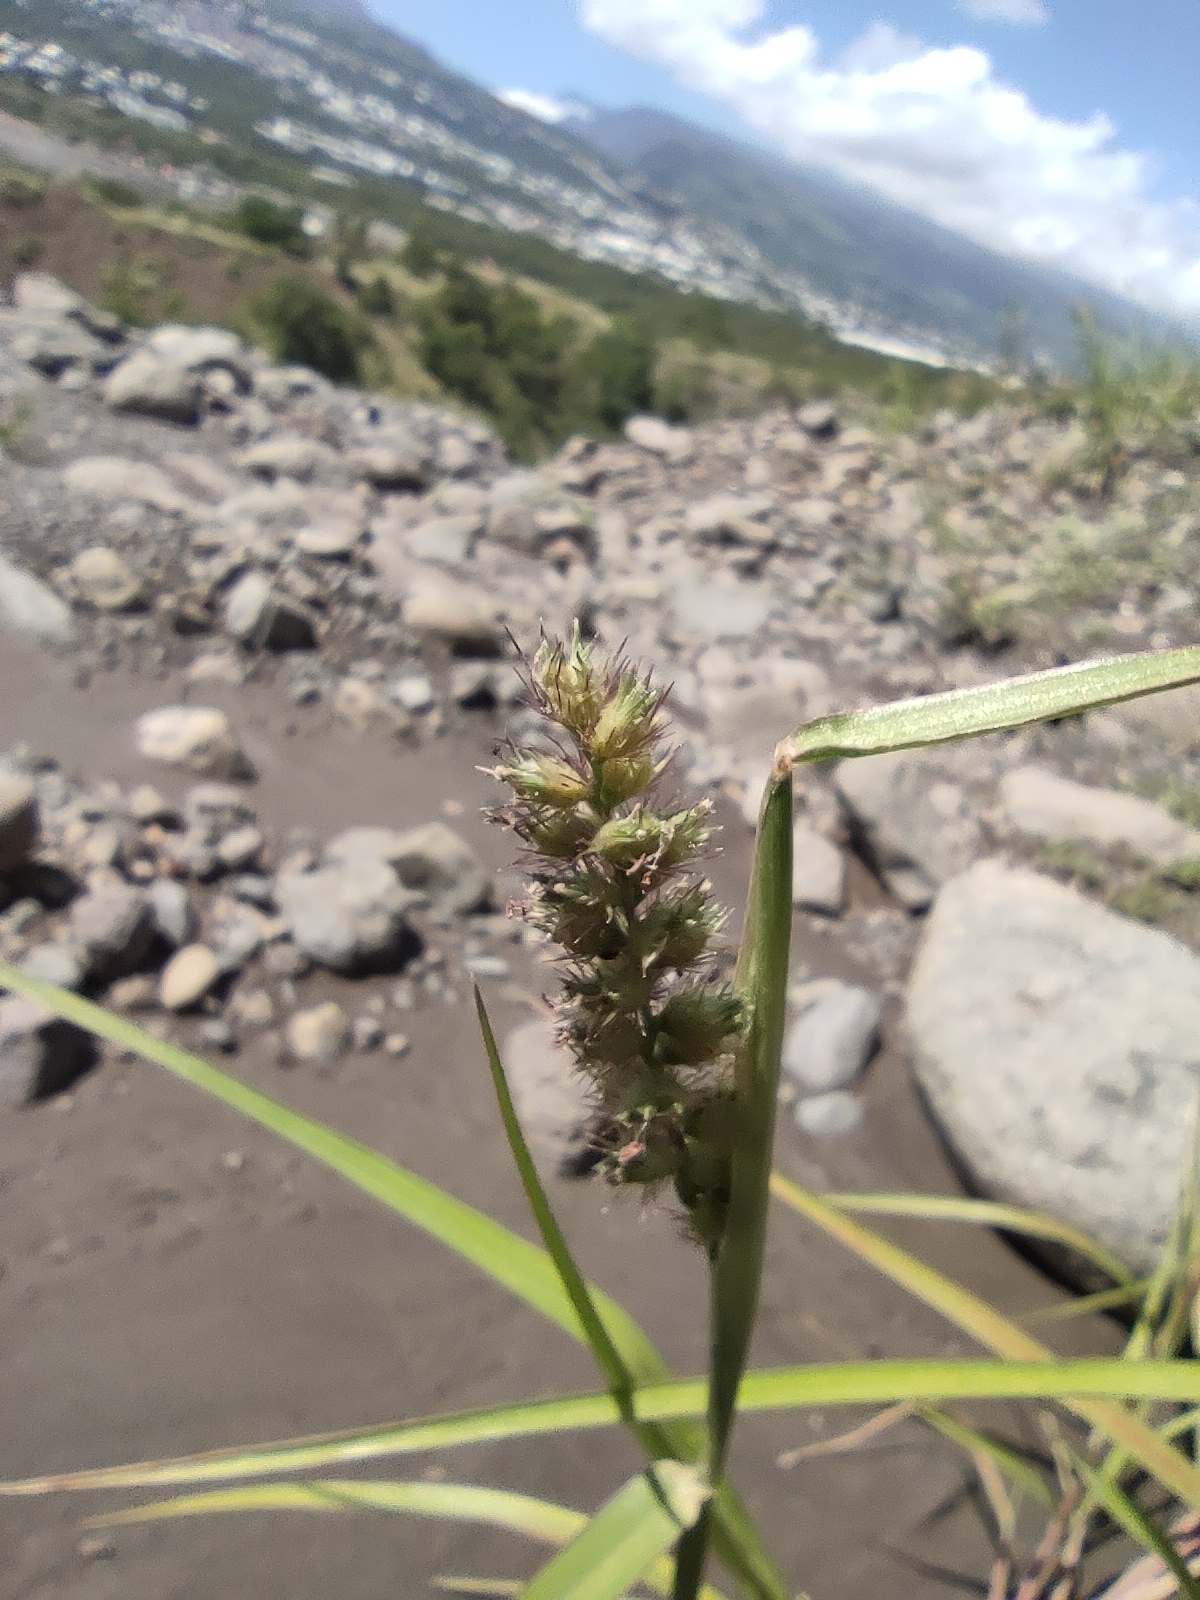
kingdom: Plantae
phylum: Tracheophyta
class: Liliopsida
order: Poales
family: Poaceae
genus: Cenchrus
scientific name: Cenchrus echinatus
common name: Southern sandbur
